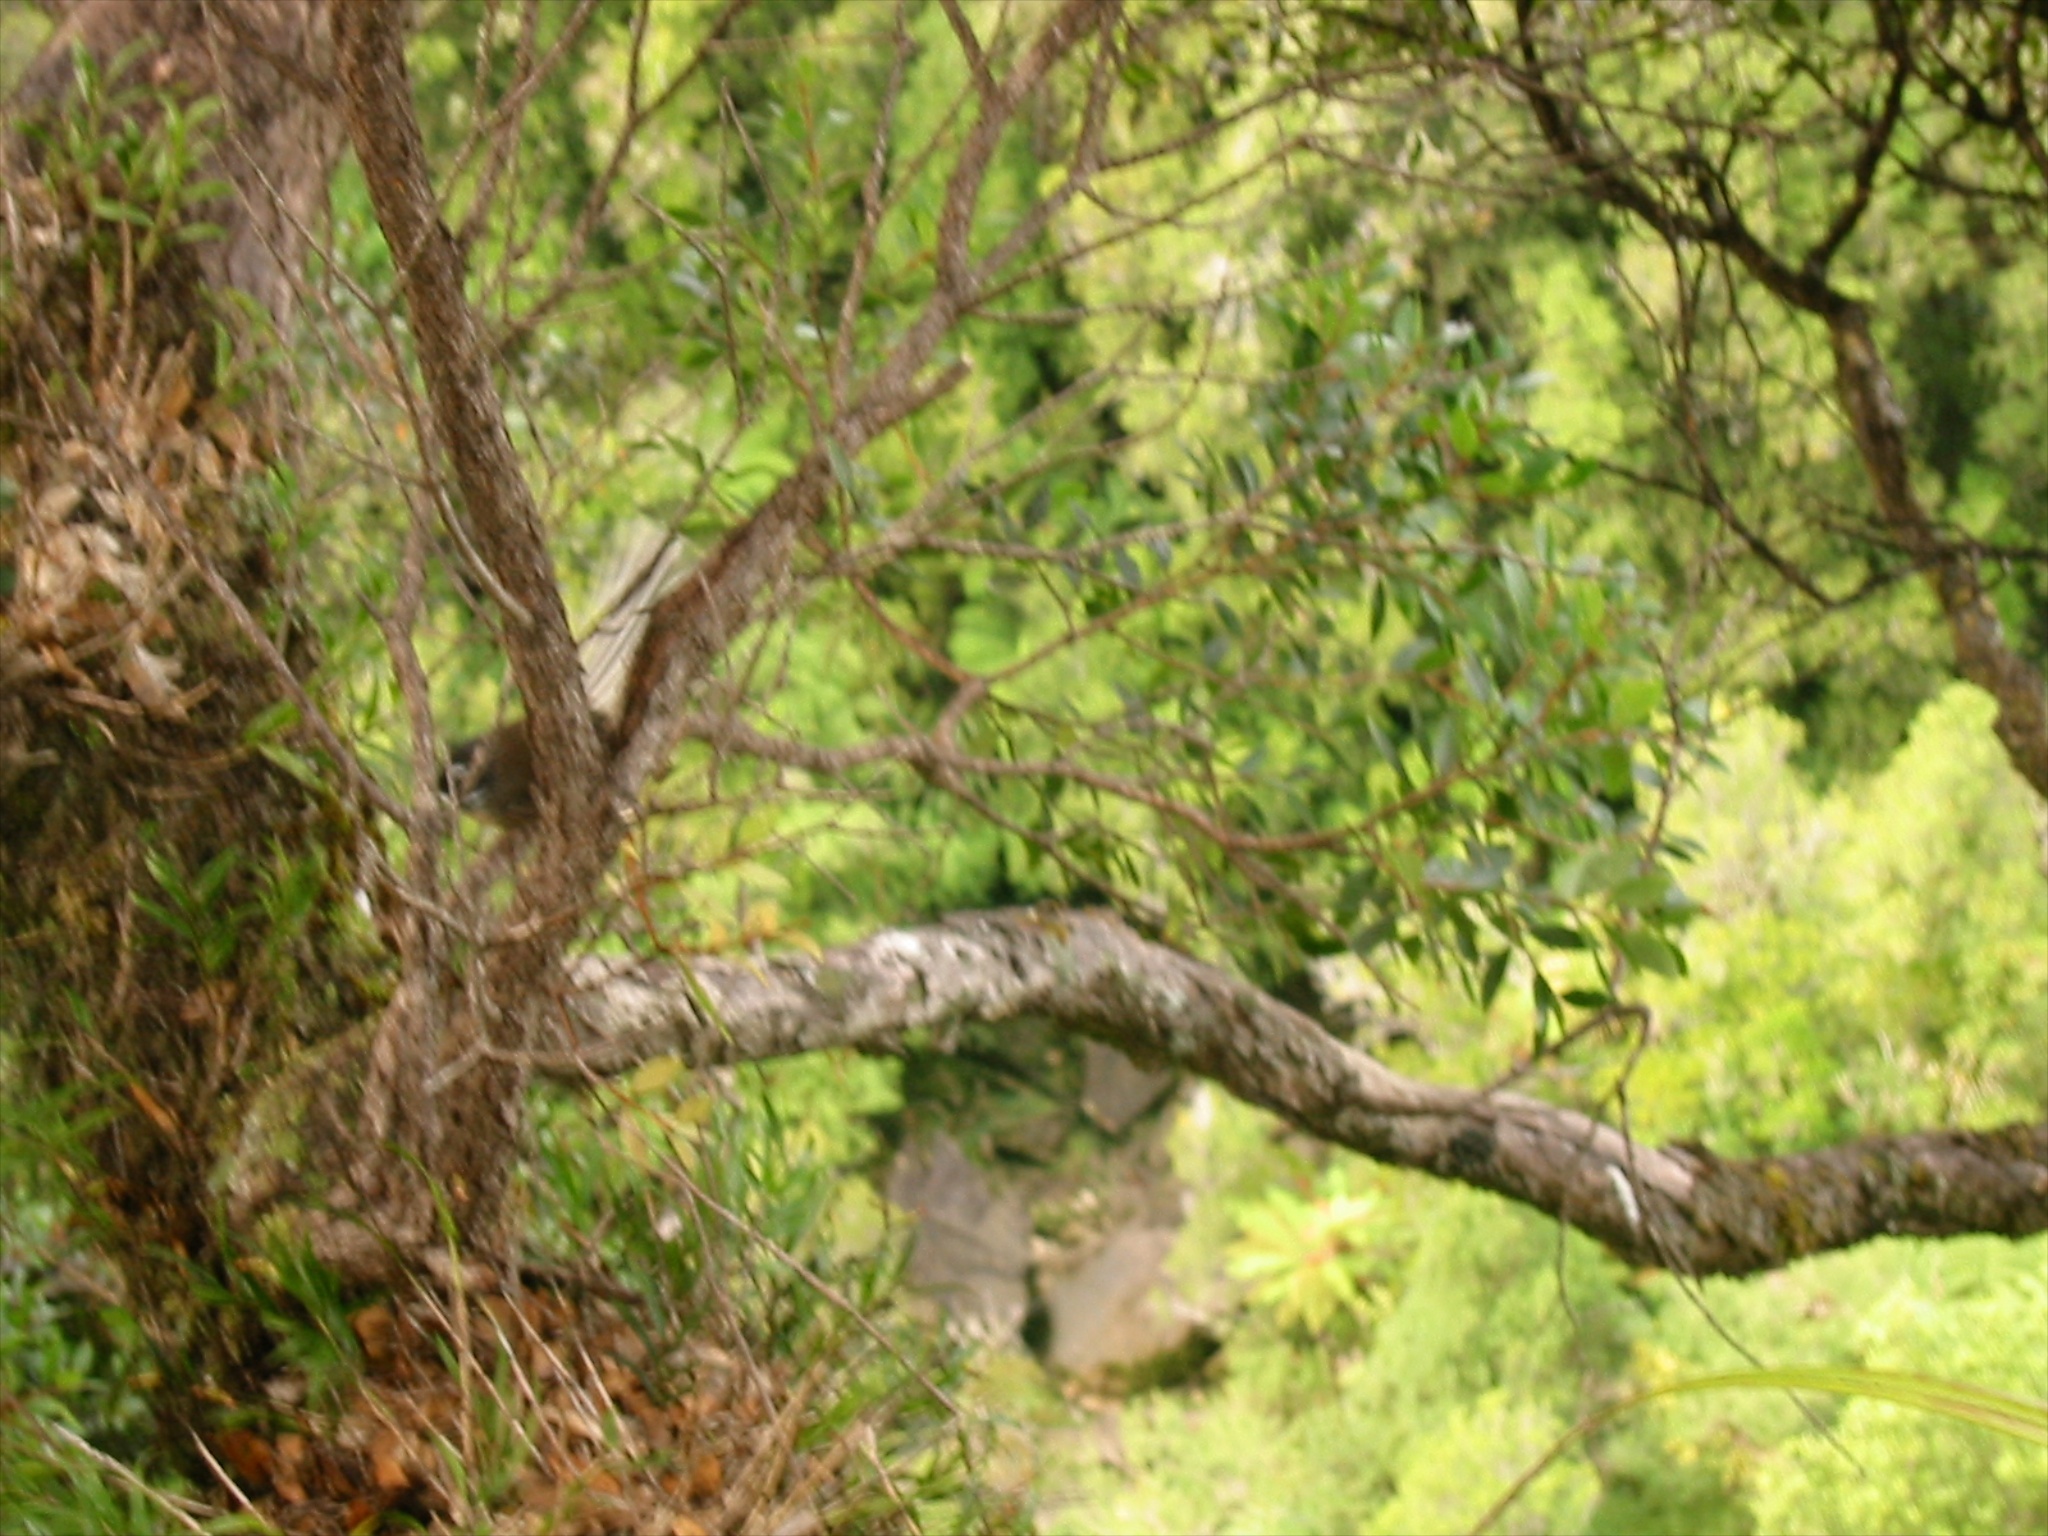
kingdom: Animalia
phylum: Chordata
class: Aves
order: Passeriformes
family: Rhipiduridae
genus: Rhipidura
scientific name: Rhipidura fuliginosa
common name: New zealand fantail
